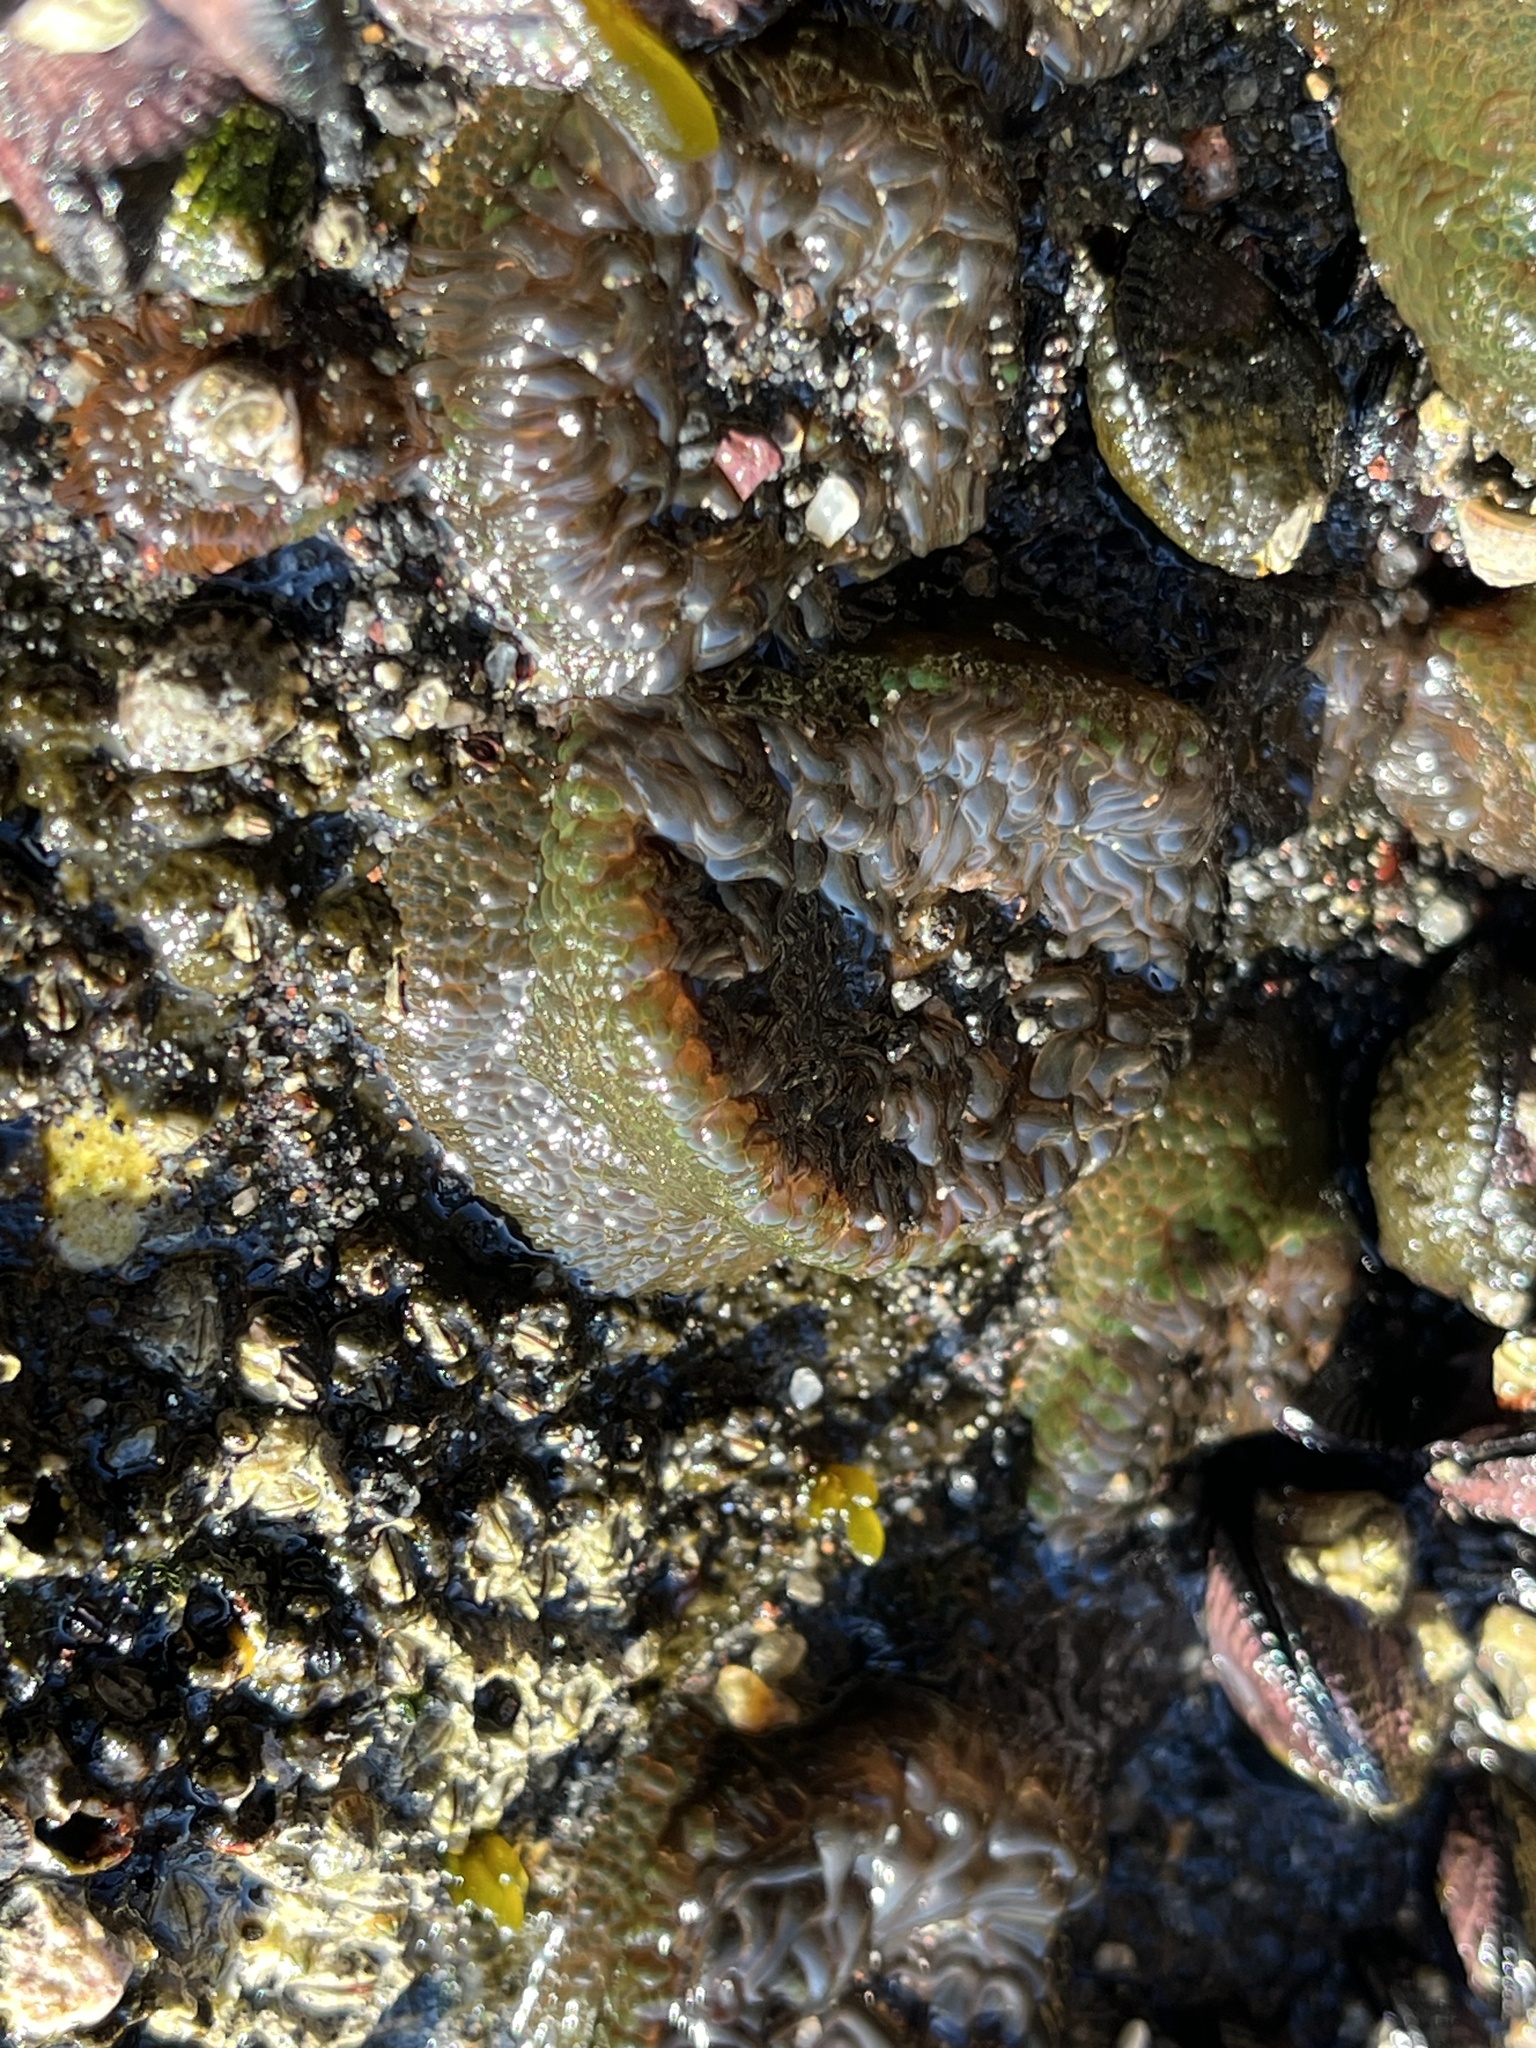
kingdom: Animalia
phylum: Cnidaria
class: Anthozoa
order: Actiniaria
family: Actiniidae
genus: Phymactis
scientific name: Phymactis papillosa
